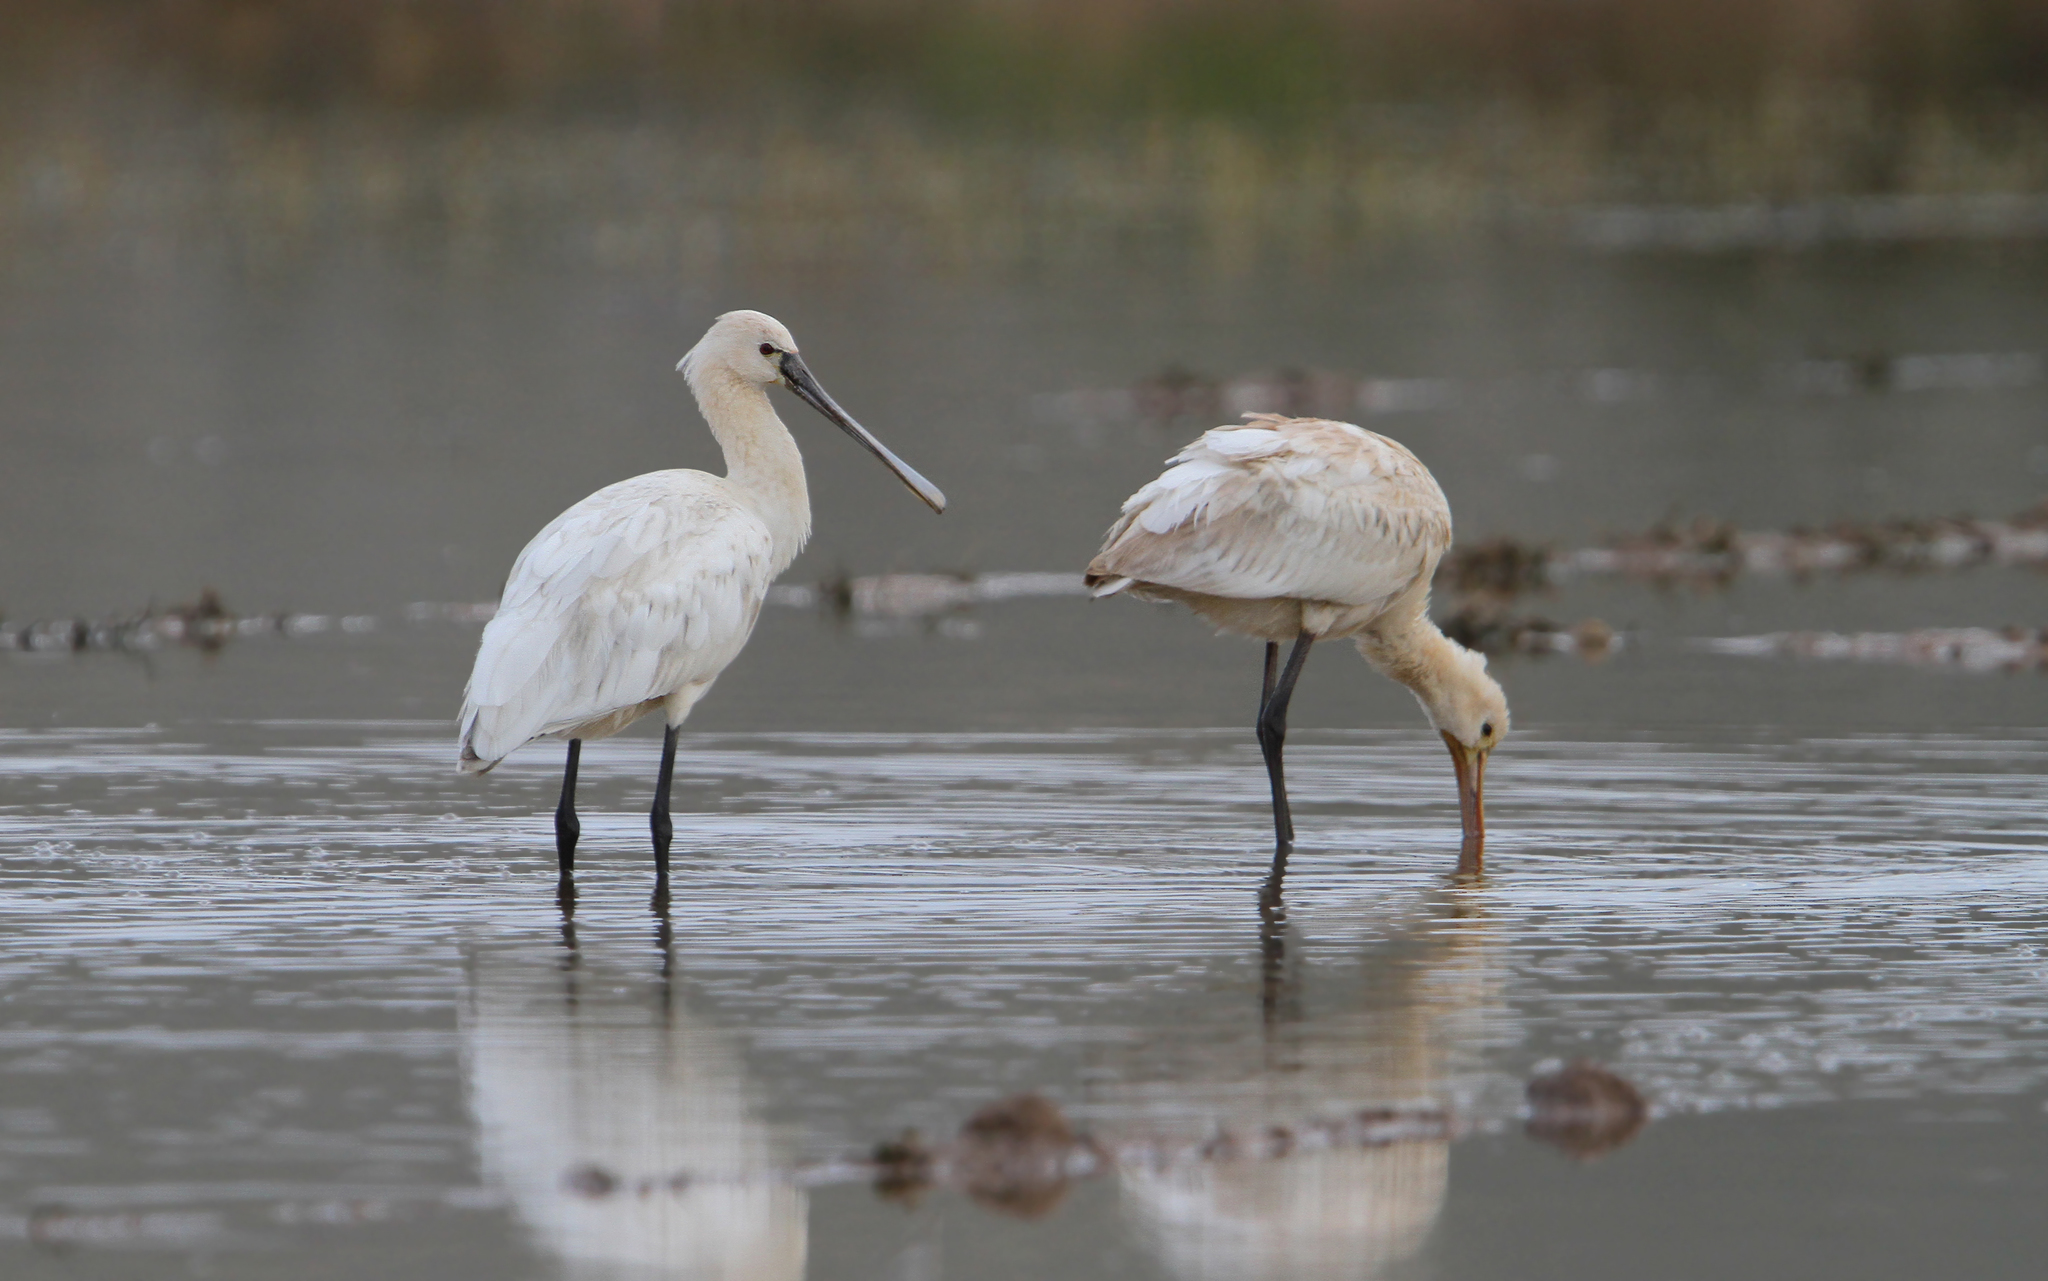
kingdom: Animalia
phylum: Chordata
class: Aves
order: Pelecaniformes
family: Threskiornithidae
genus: Platalea
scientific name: Platalea leucorodia
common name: Eurasian spoonbill
